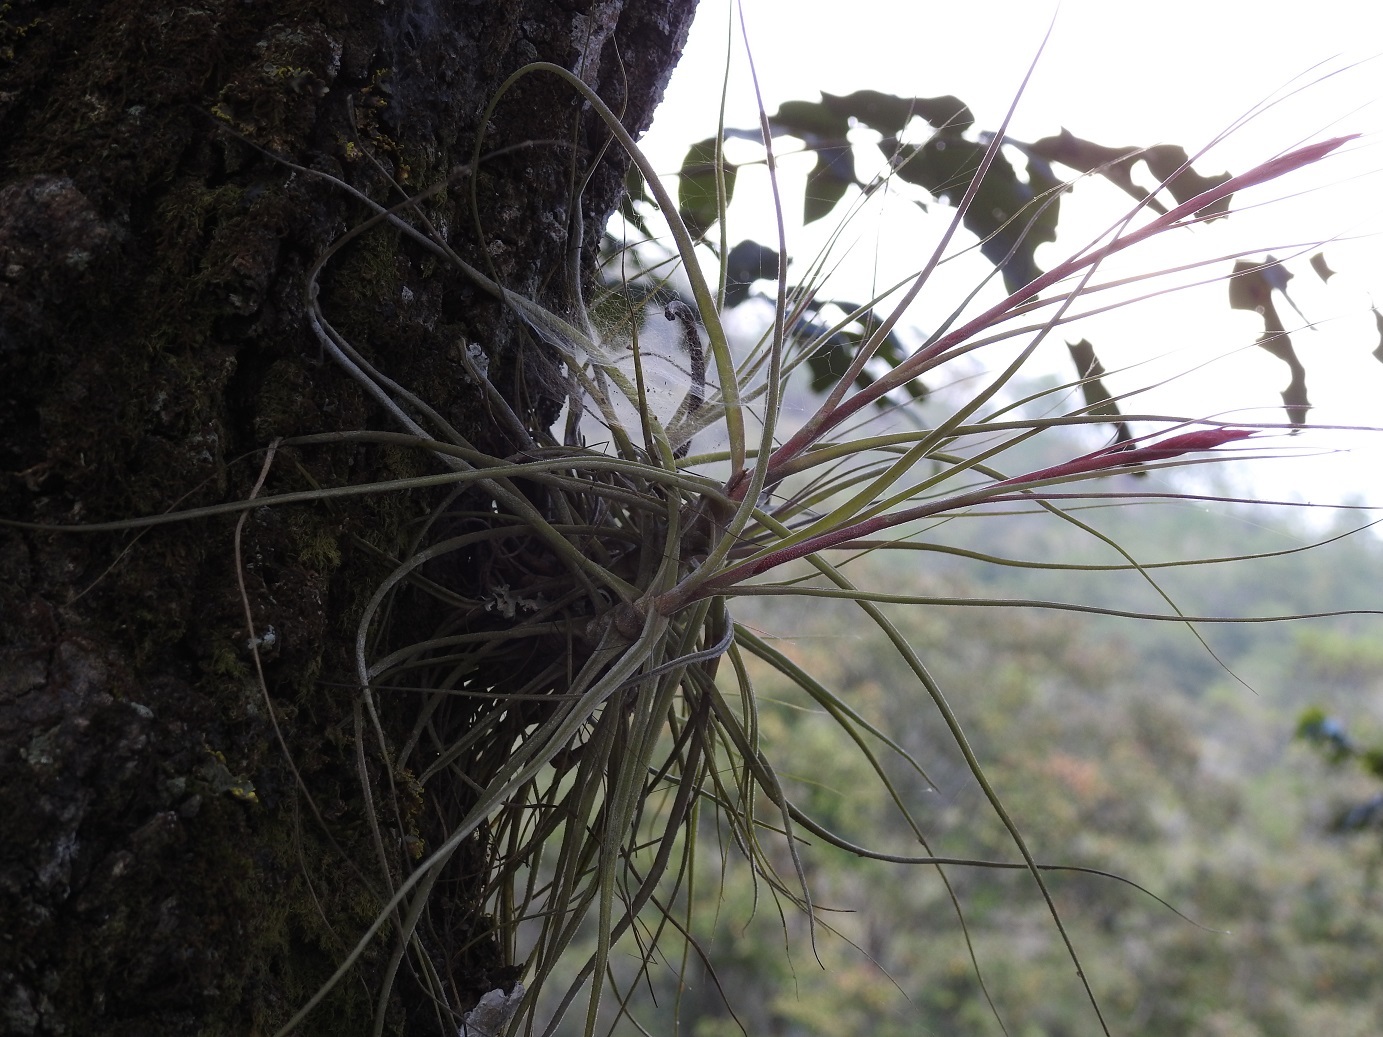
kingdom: Plantae
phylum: Tracheophyta
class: Liliopsida
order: Poales
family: Bromeliaceae
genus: Tillandsia
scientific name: Tillandsia schiedeana
